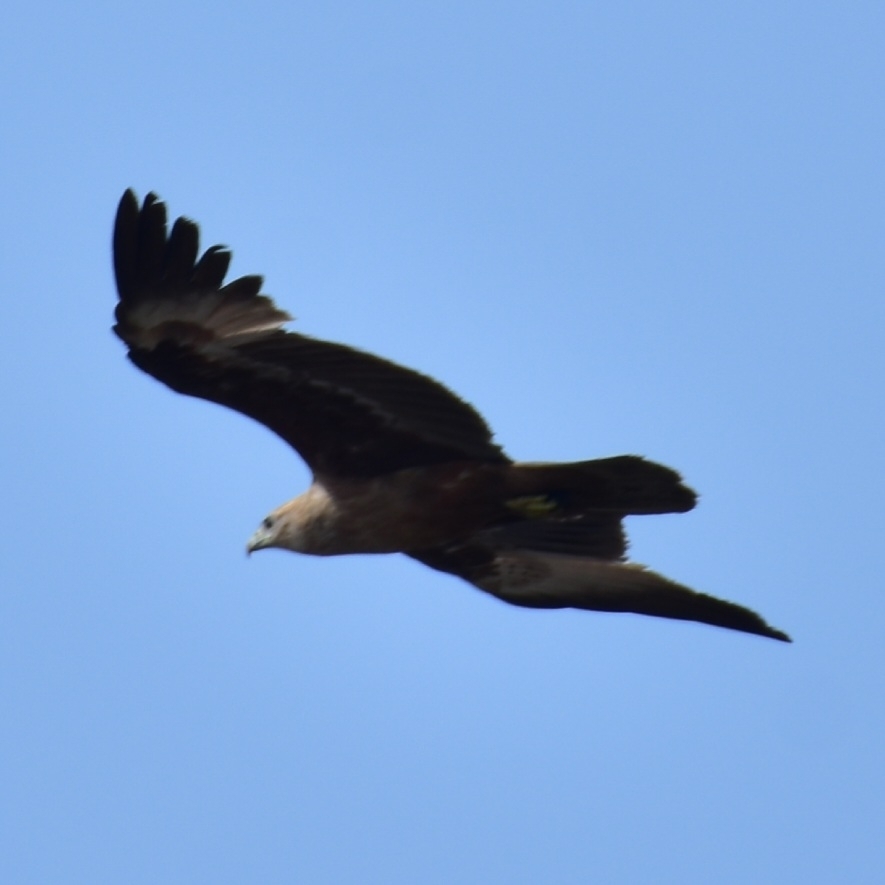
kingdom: Animalia
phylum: Chordata
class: Aves
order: Accipitriformes
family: Accipitridae
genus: Haliastur
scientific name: Haliastur indus
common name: Brahminy kite
